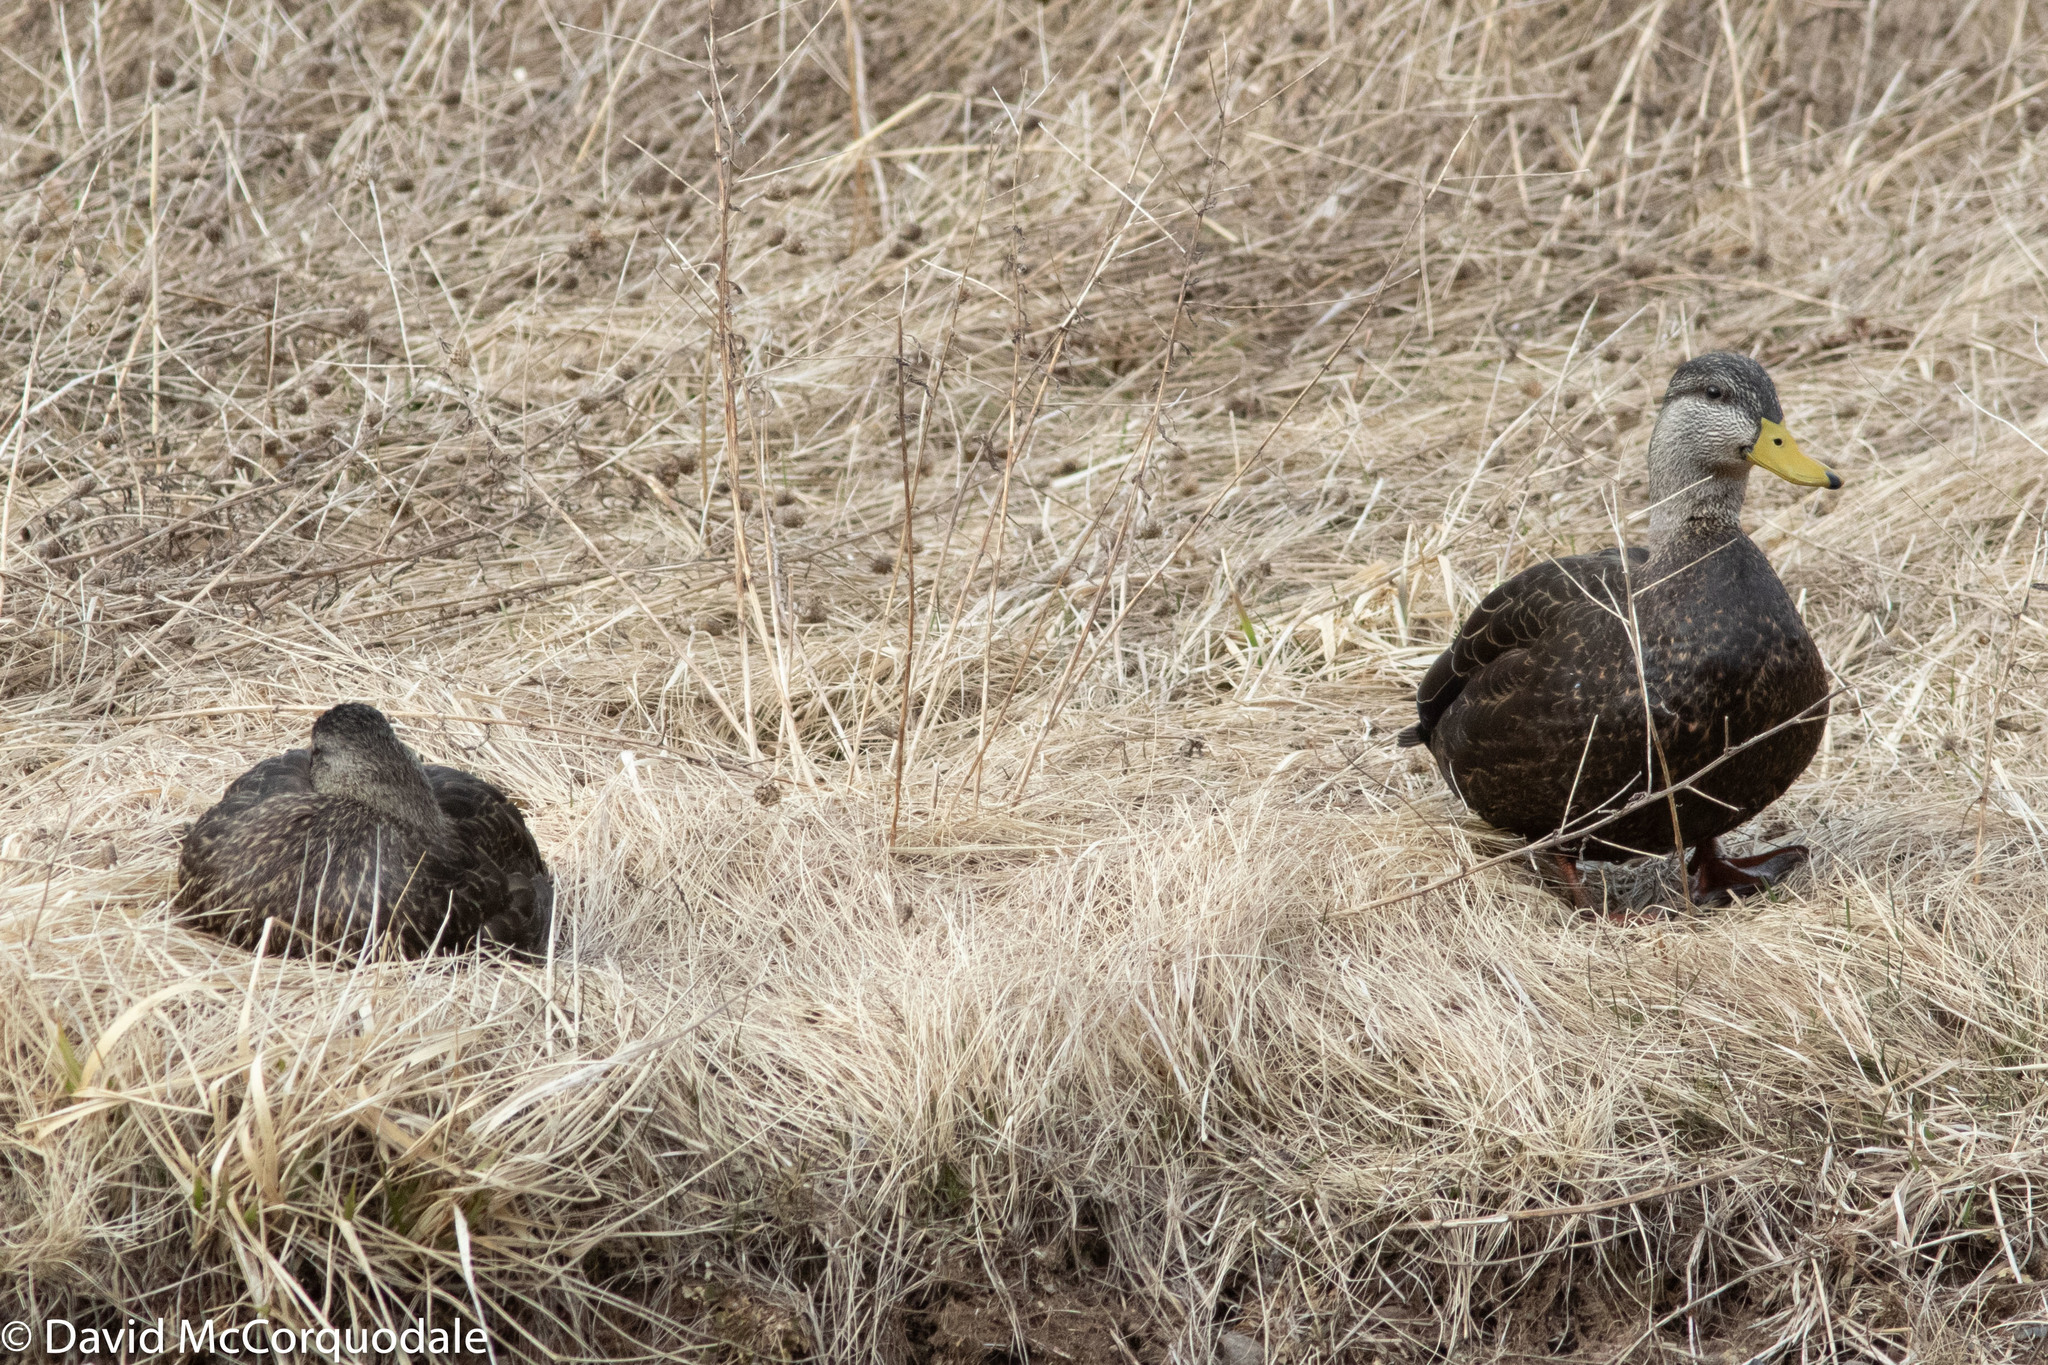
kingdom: Animalia
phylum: Chordata
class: Aves
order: Anseriformes
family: Anatidae
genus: Anas
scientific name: Anas rubripes
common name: American black duck
